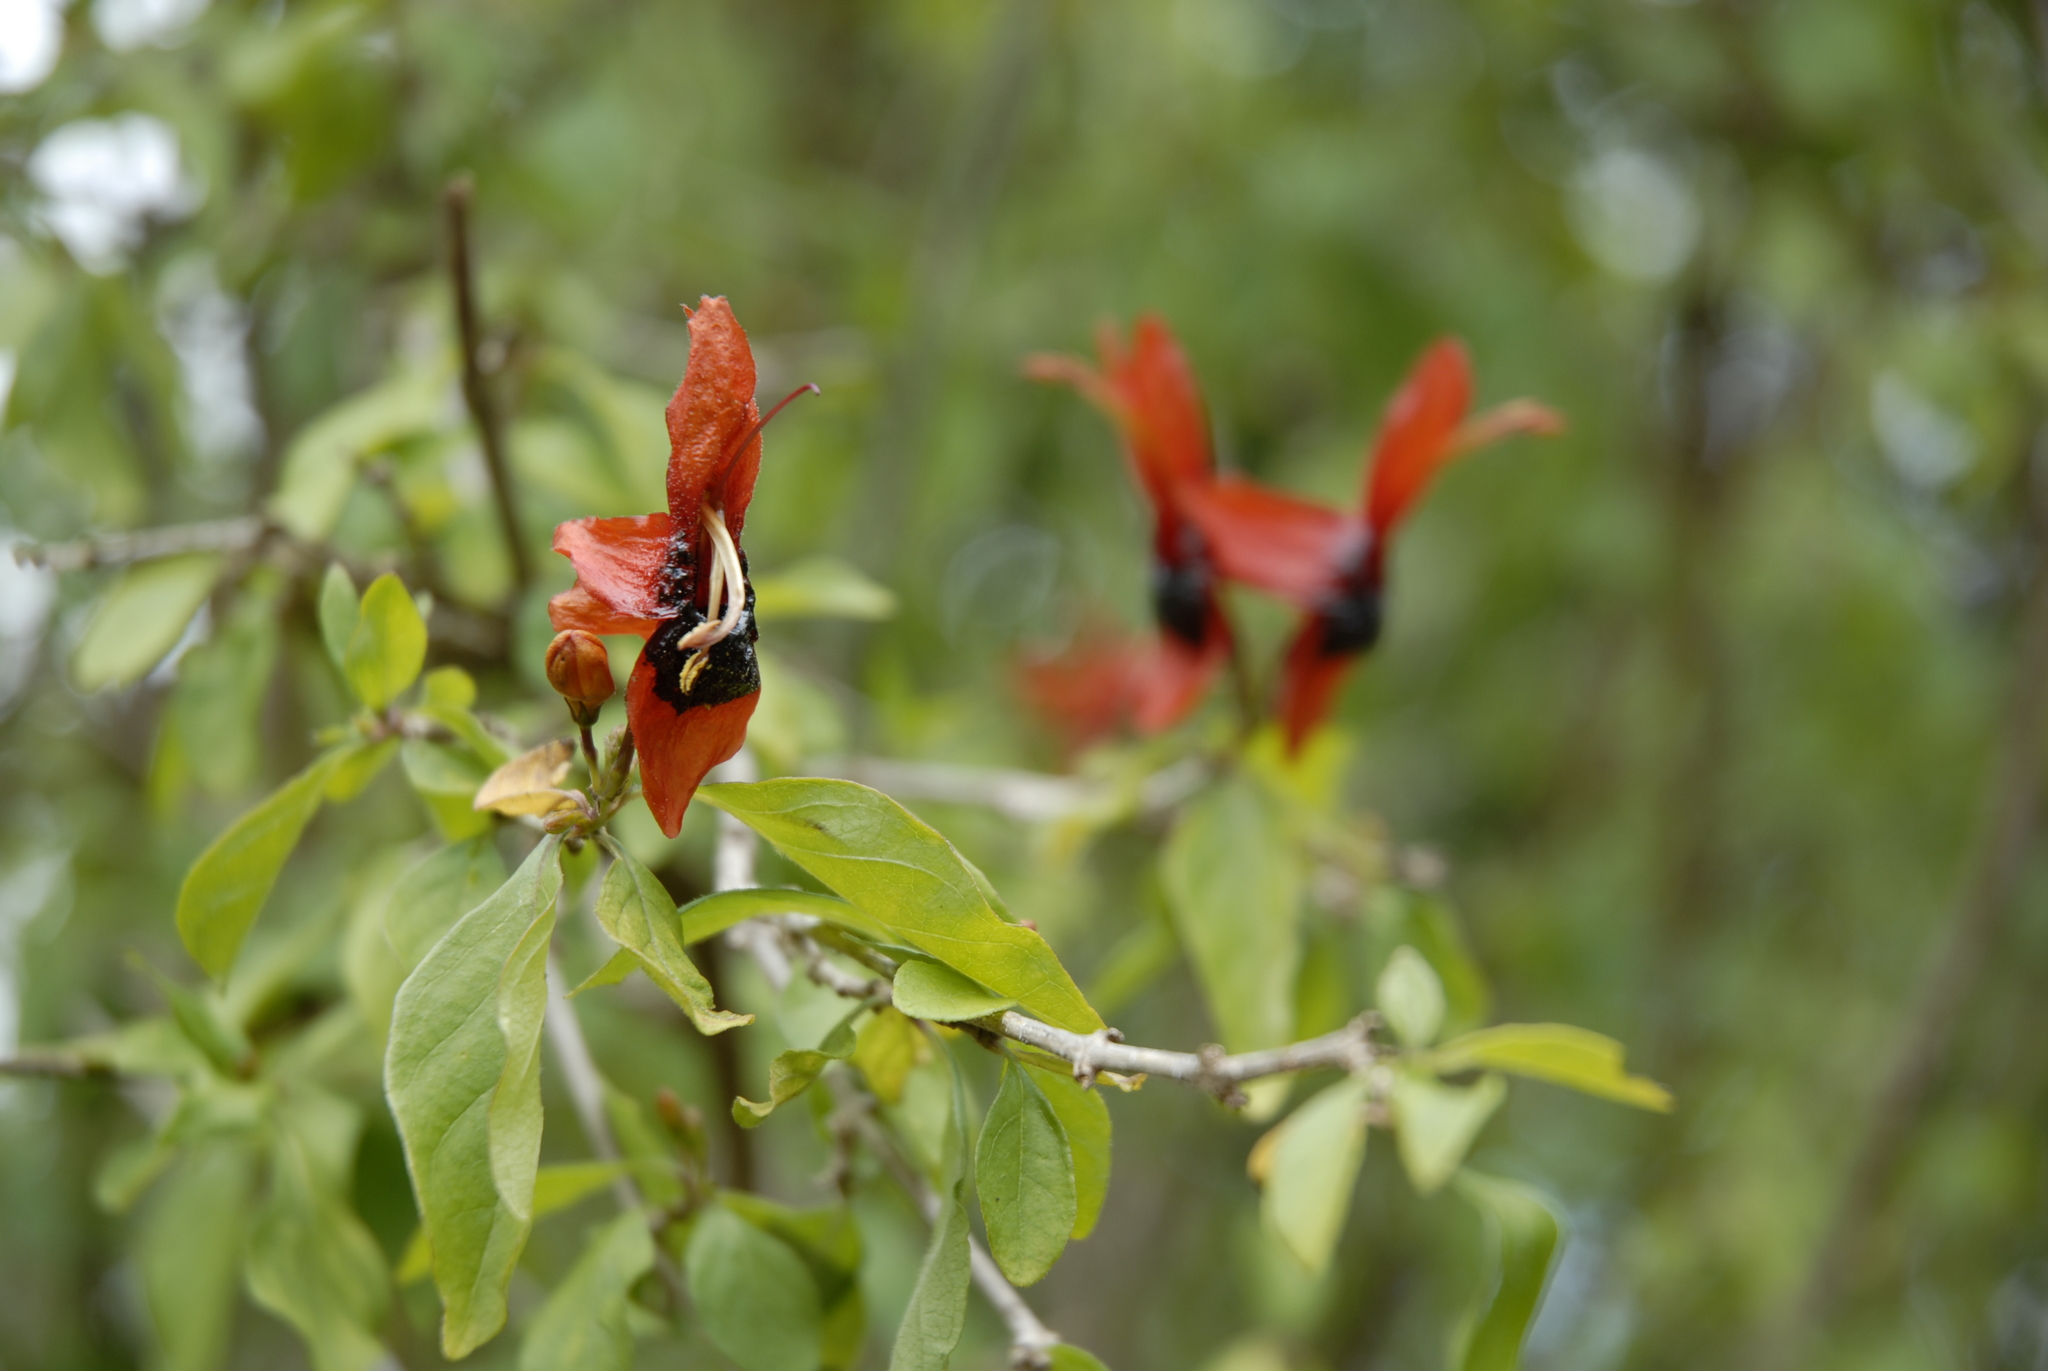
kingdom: Plantae
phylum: Tracheophyta
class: Magnoliopsida
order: Lamiales
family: Acanthaceae
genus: Ruttya
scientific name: Ruttya fruticosa
